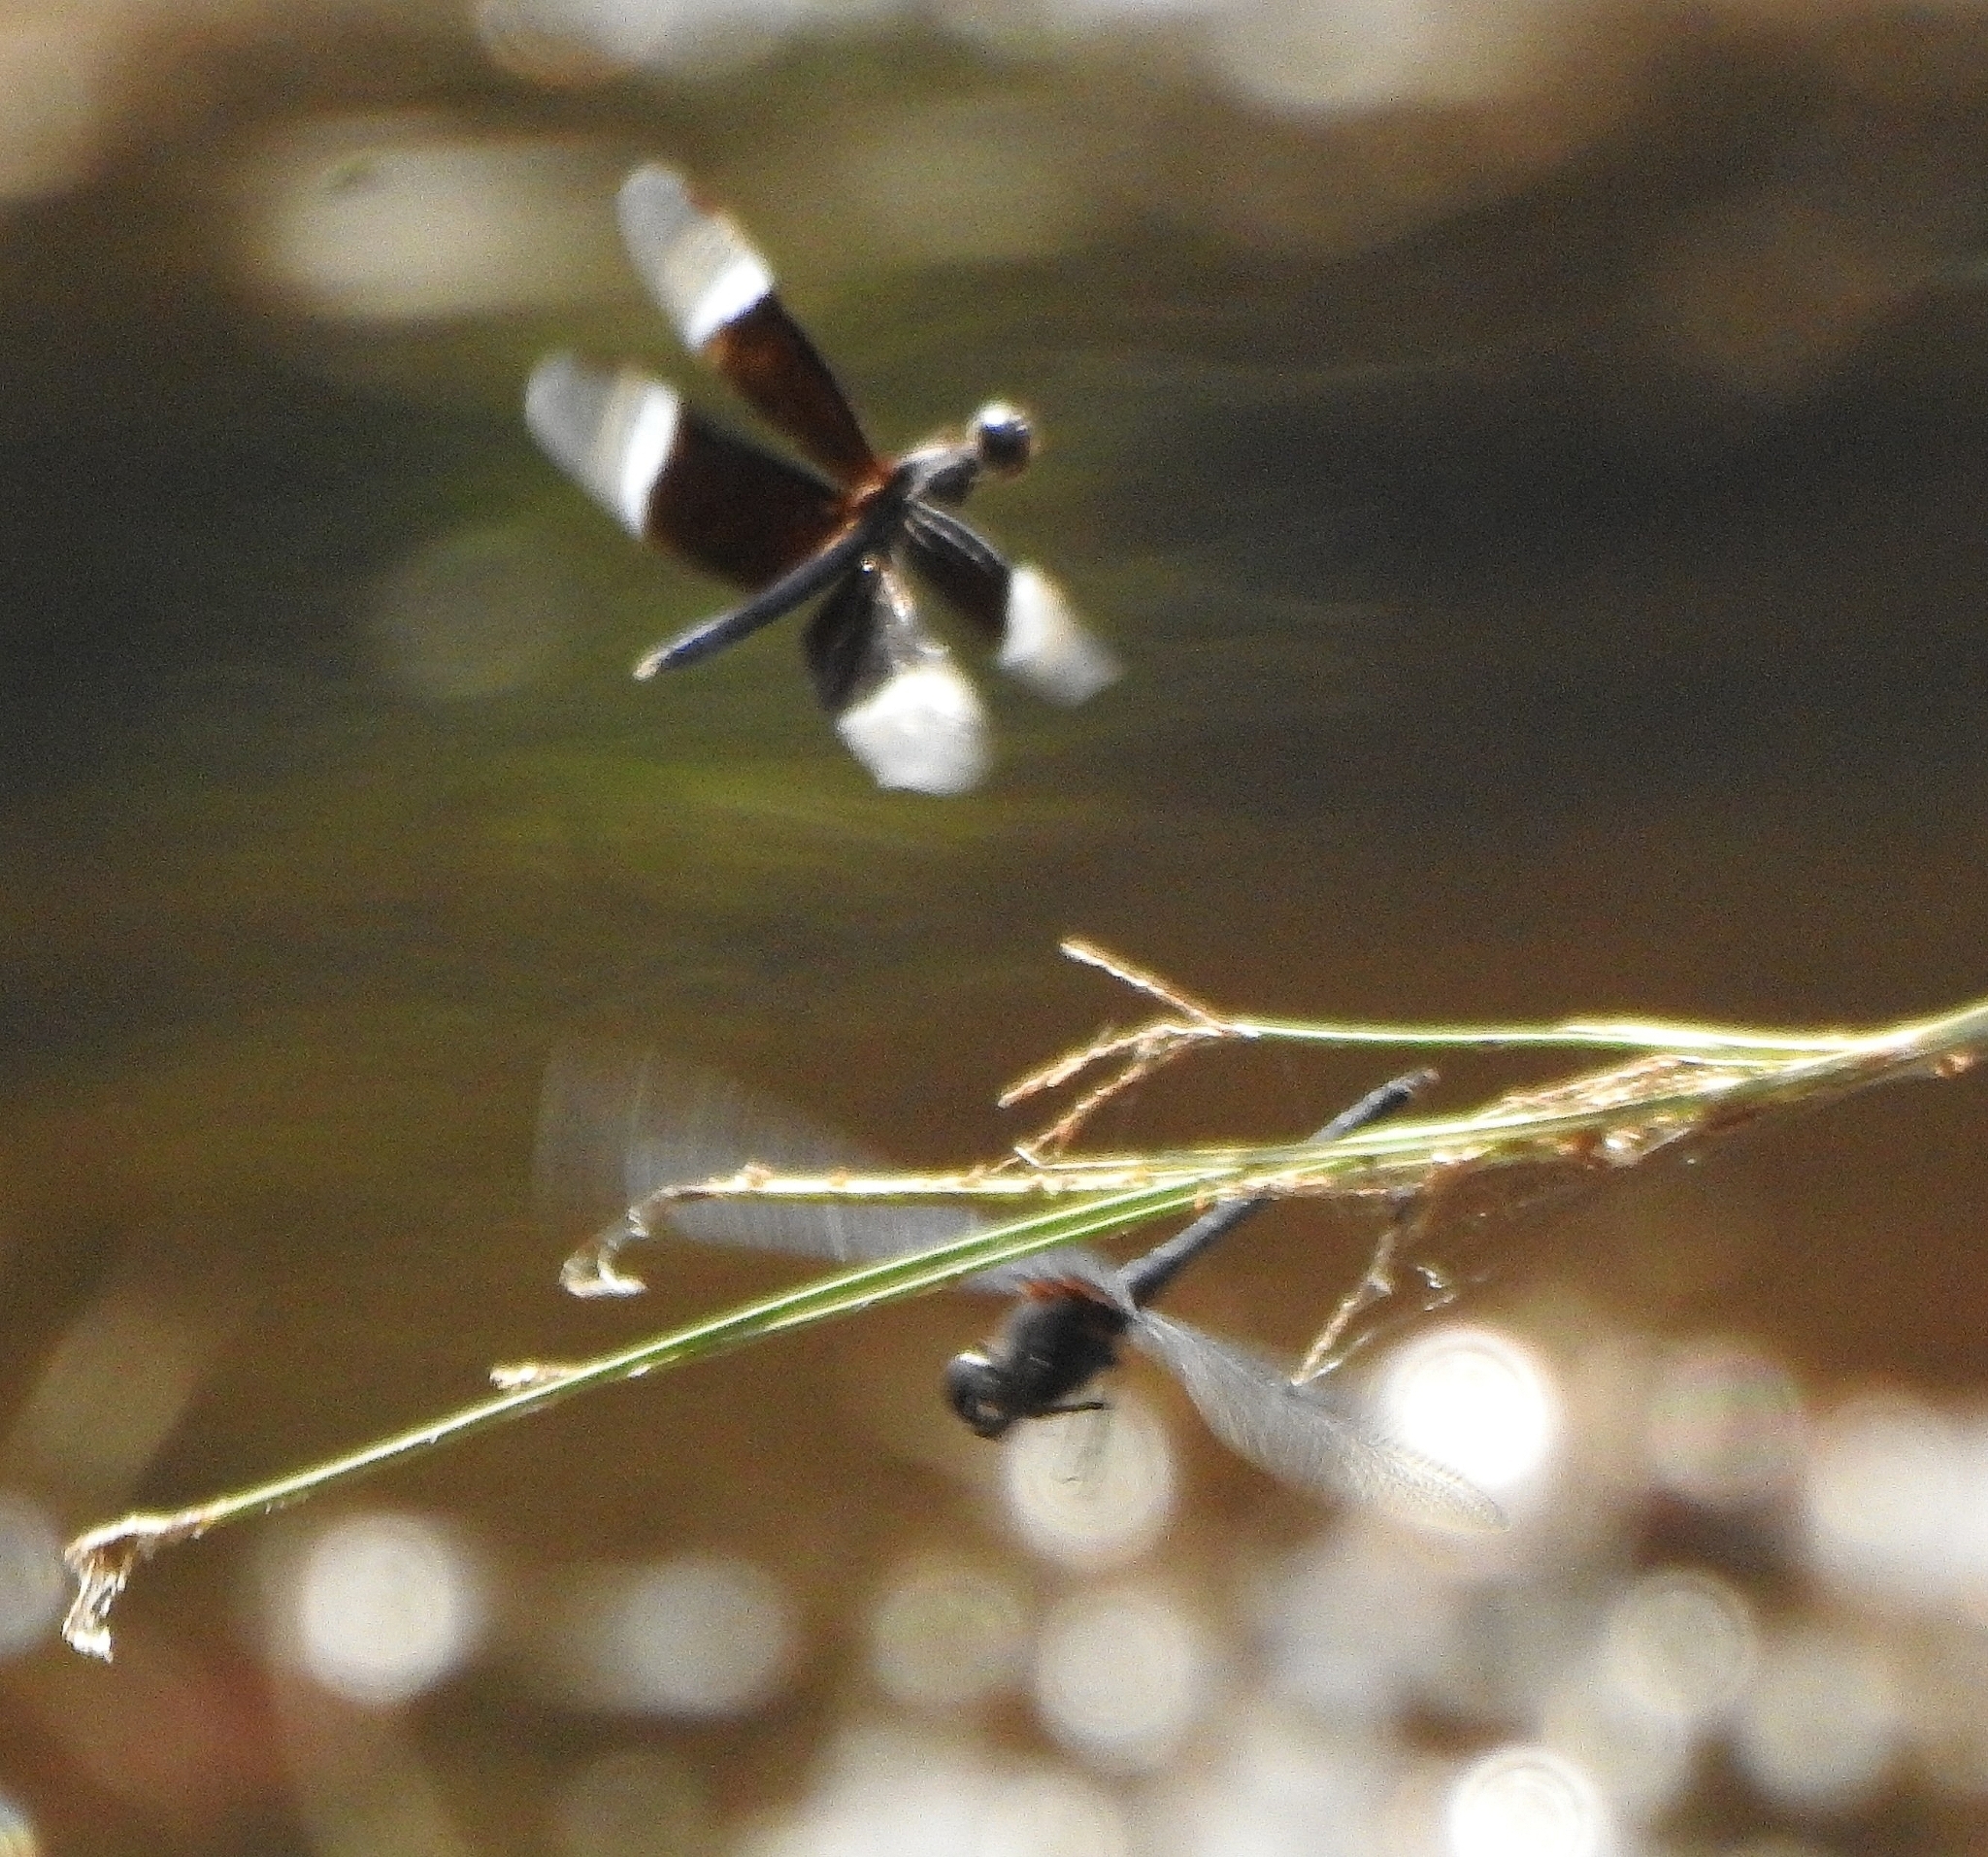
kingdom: Animalia
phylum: Arthropoda
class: Insecta
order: Odonata
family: Libellulidae
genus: Neurothemis
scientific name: Neurothemis tullia
